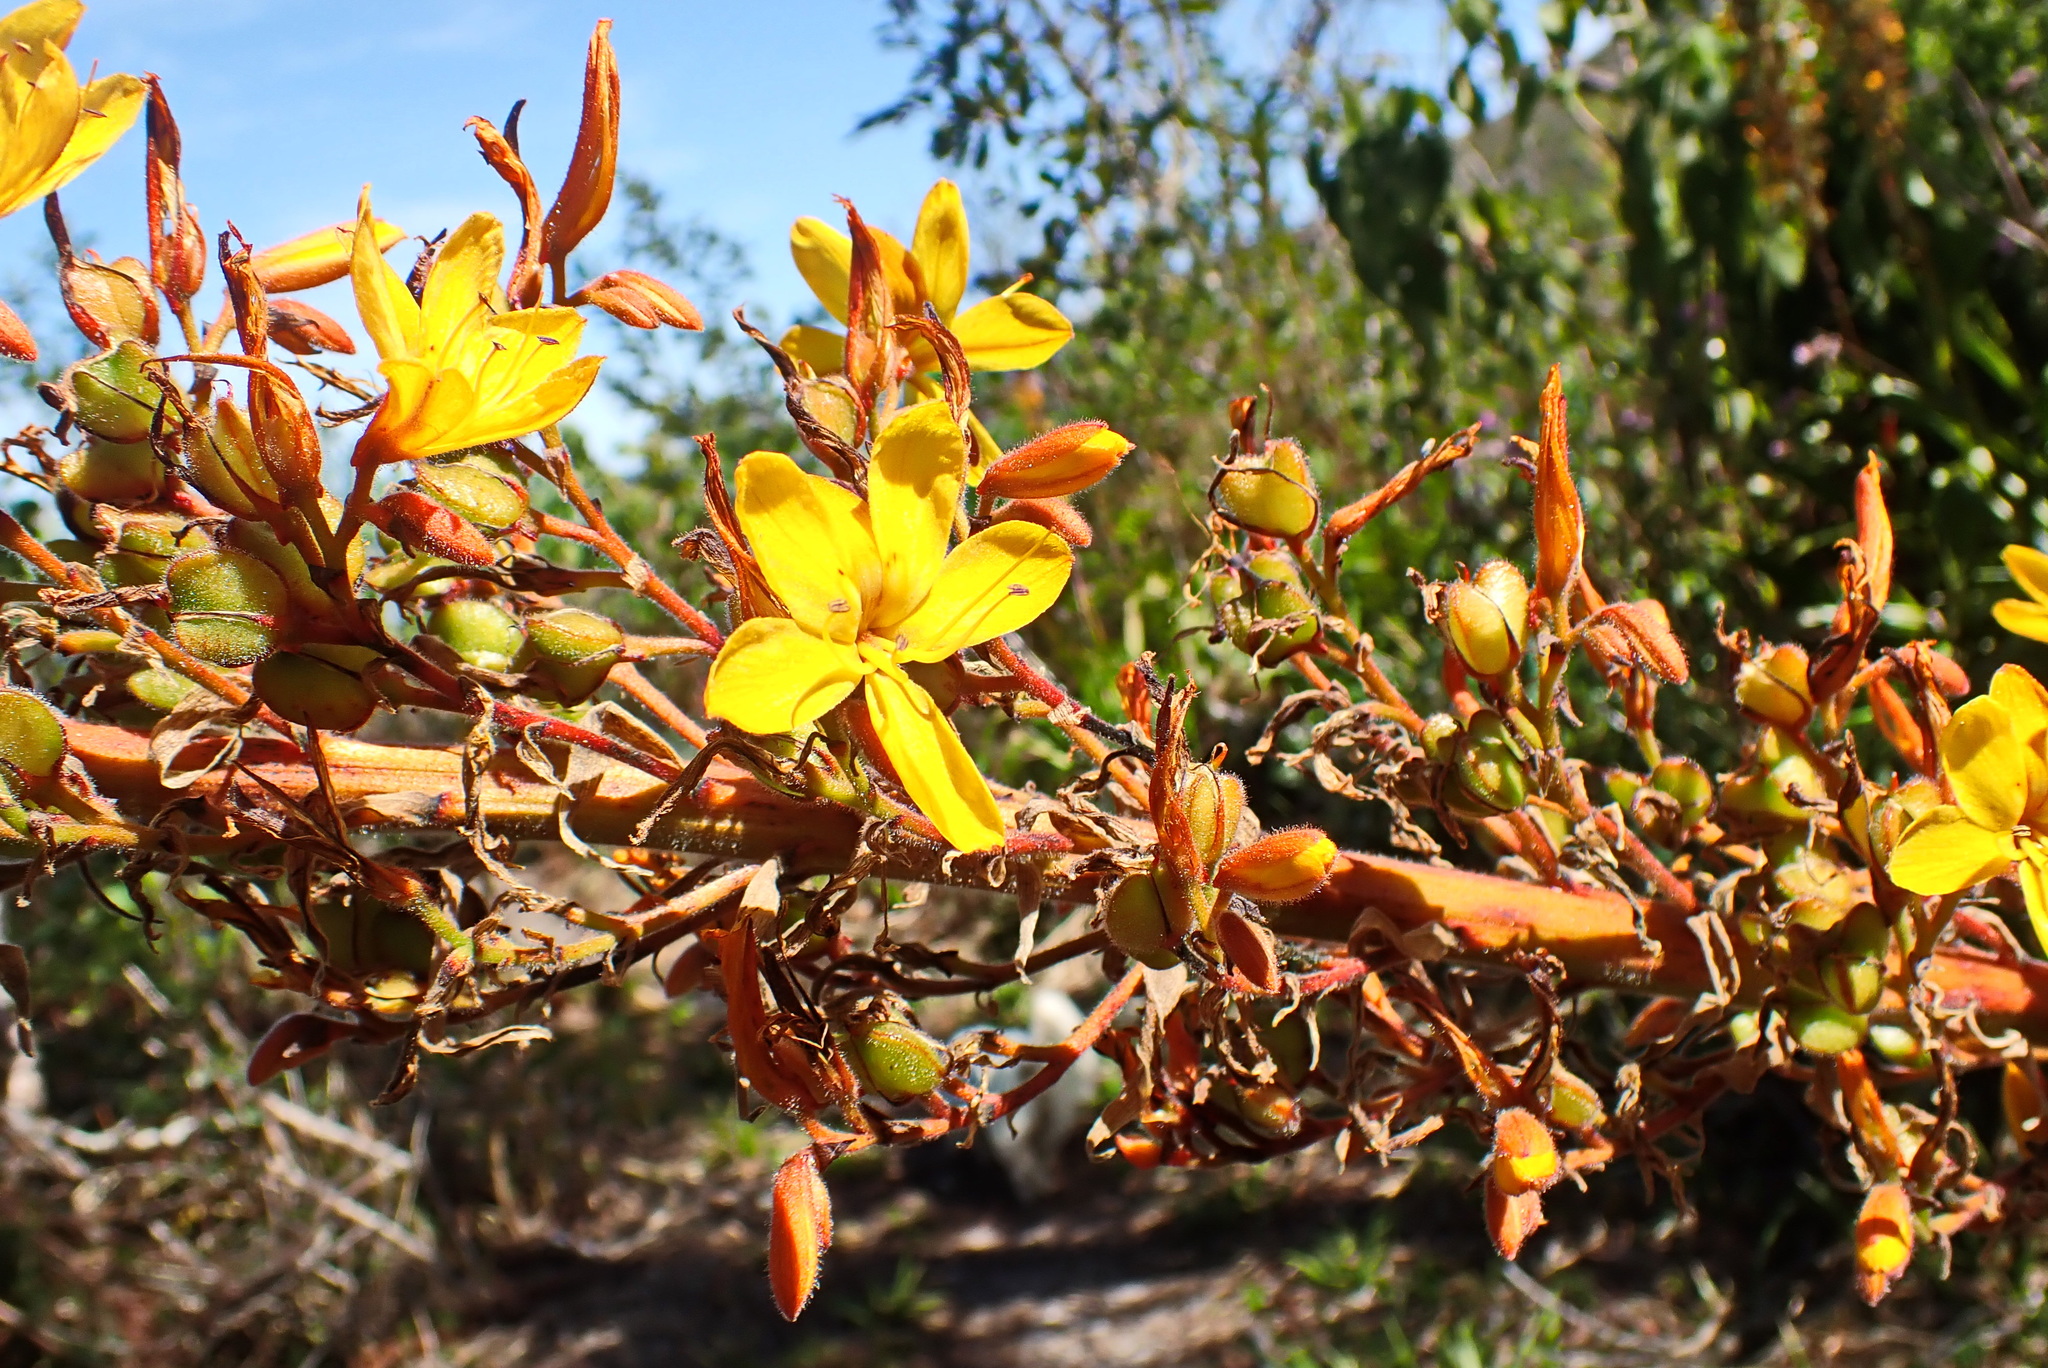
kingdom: Plantae
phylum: Tracheophyta
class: Liliopsida
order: Commelinales
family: Haemodoraceae
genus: Wachendorfia
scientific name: Wachendorfia thyrsiflora
